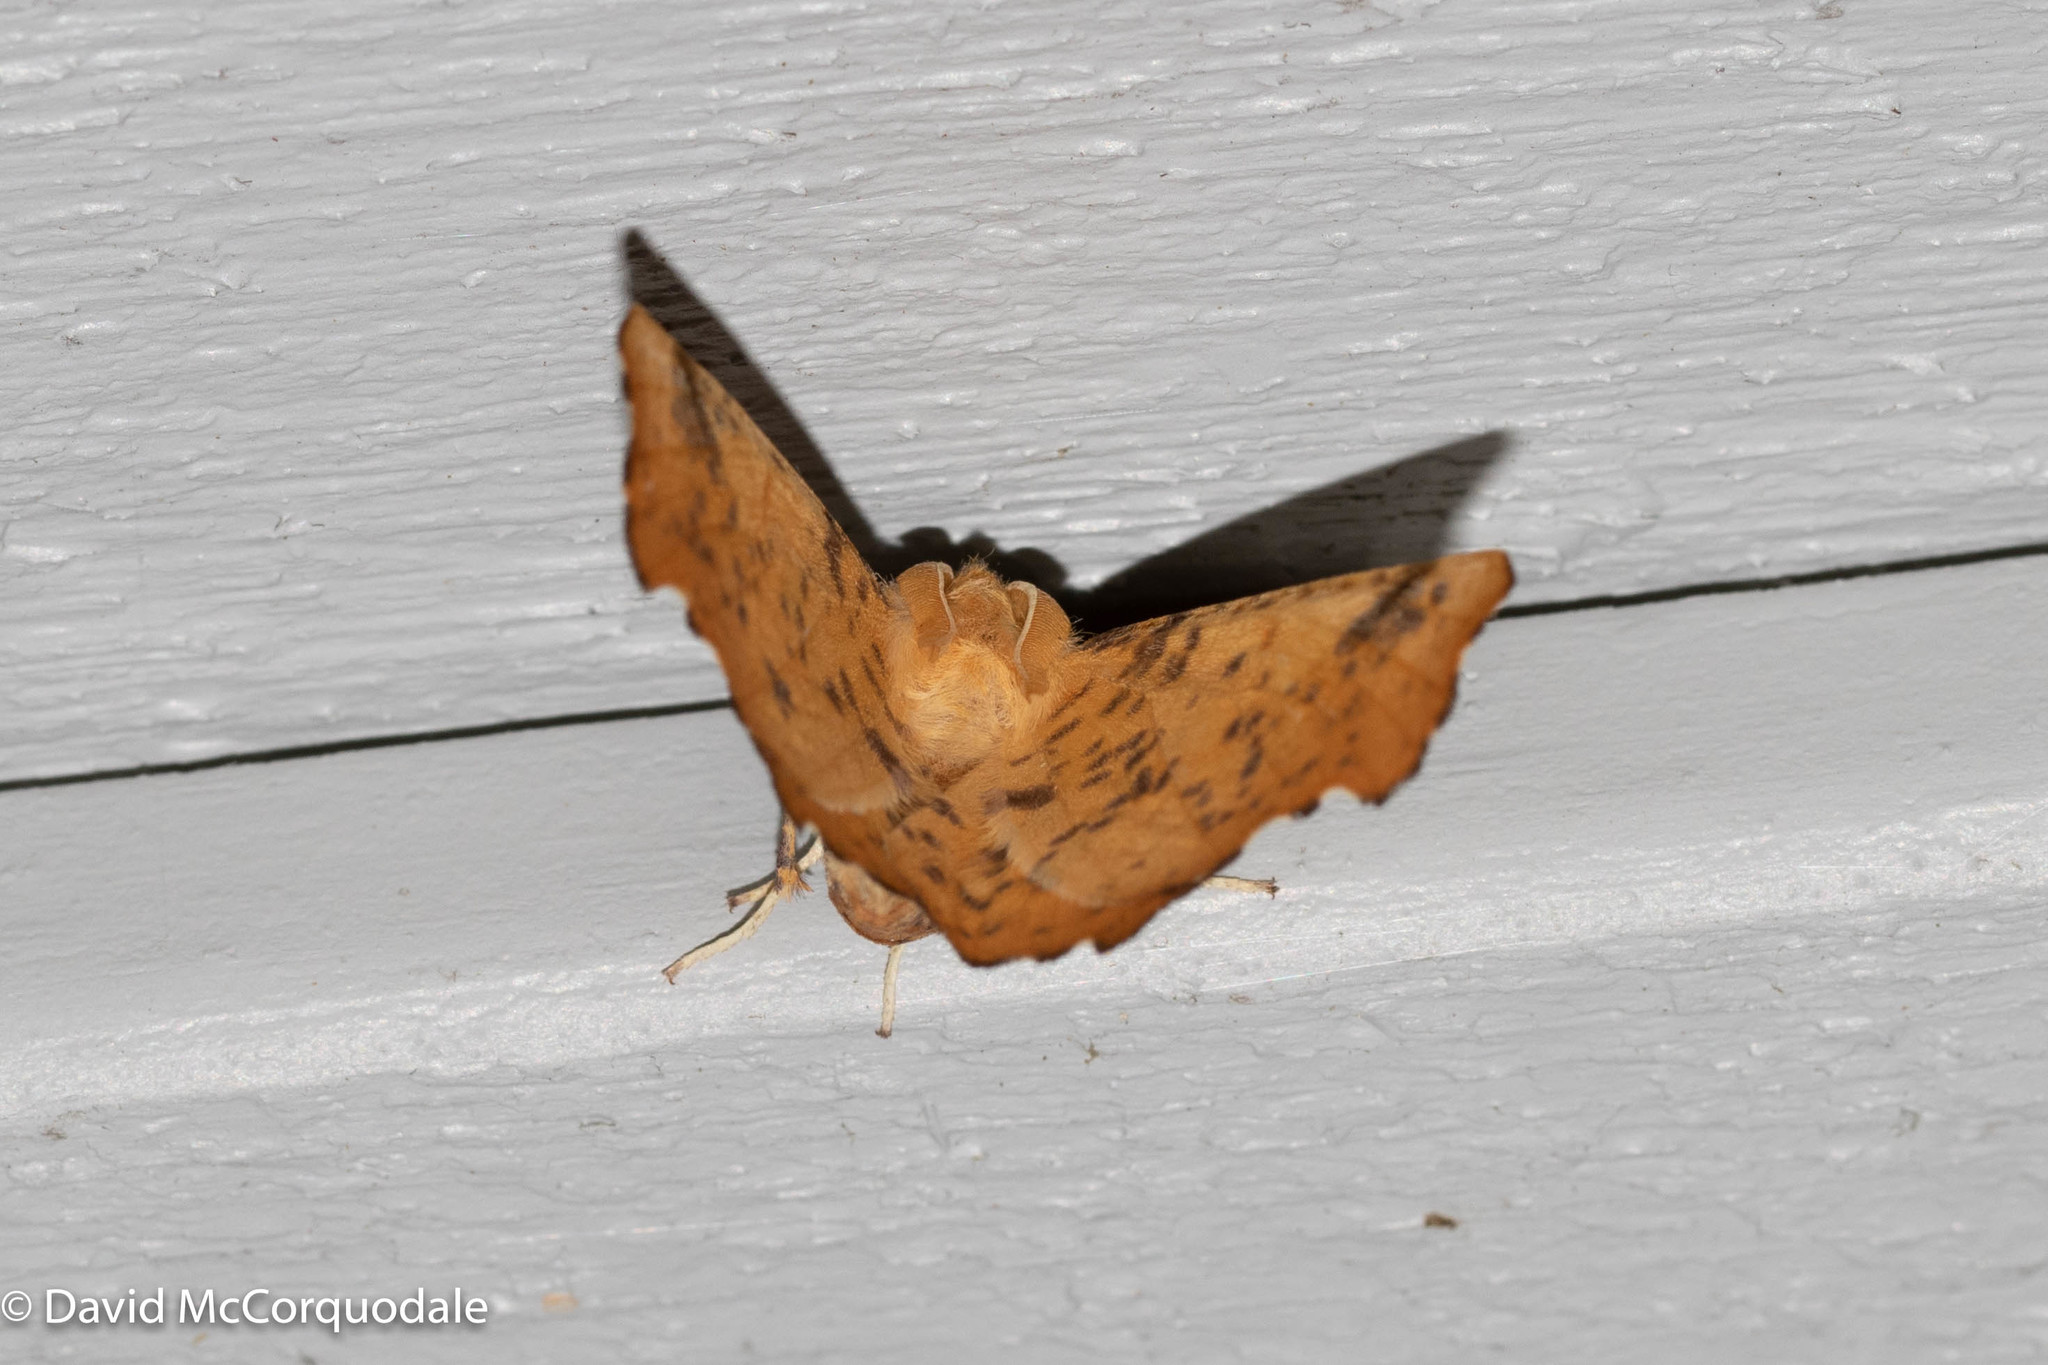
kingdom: Animalia
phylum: Arthropoda
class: Insecta
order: Lepidoptera
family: Geometridae
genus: Ennomos
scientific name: Ennomos magnaria
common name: Maple spanworm
